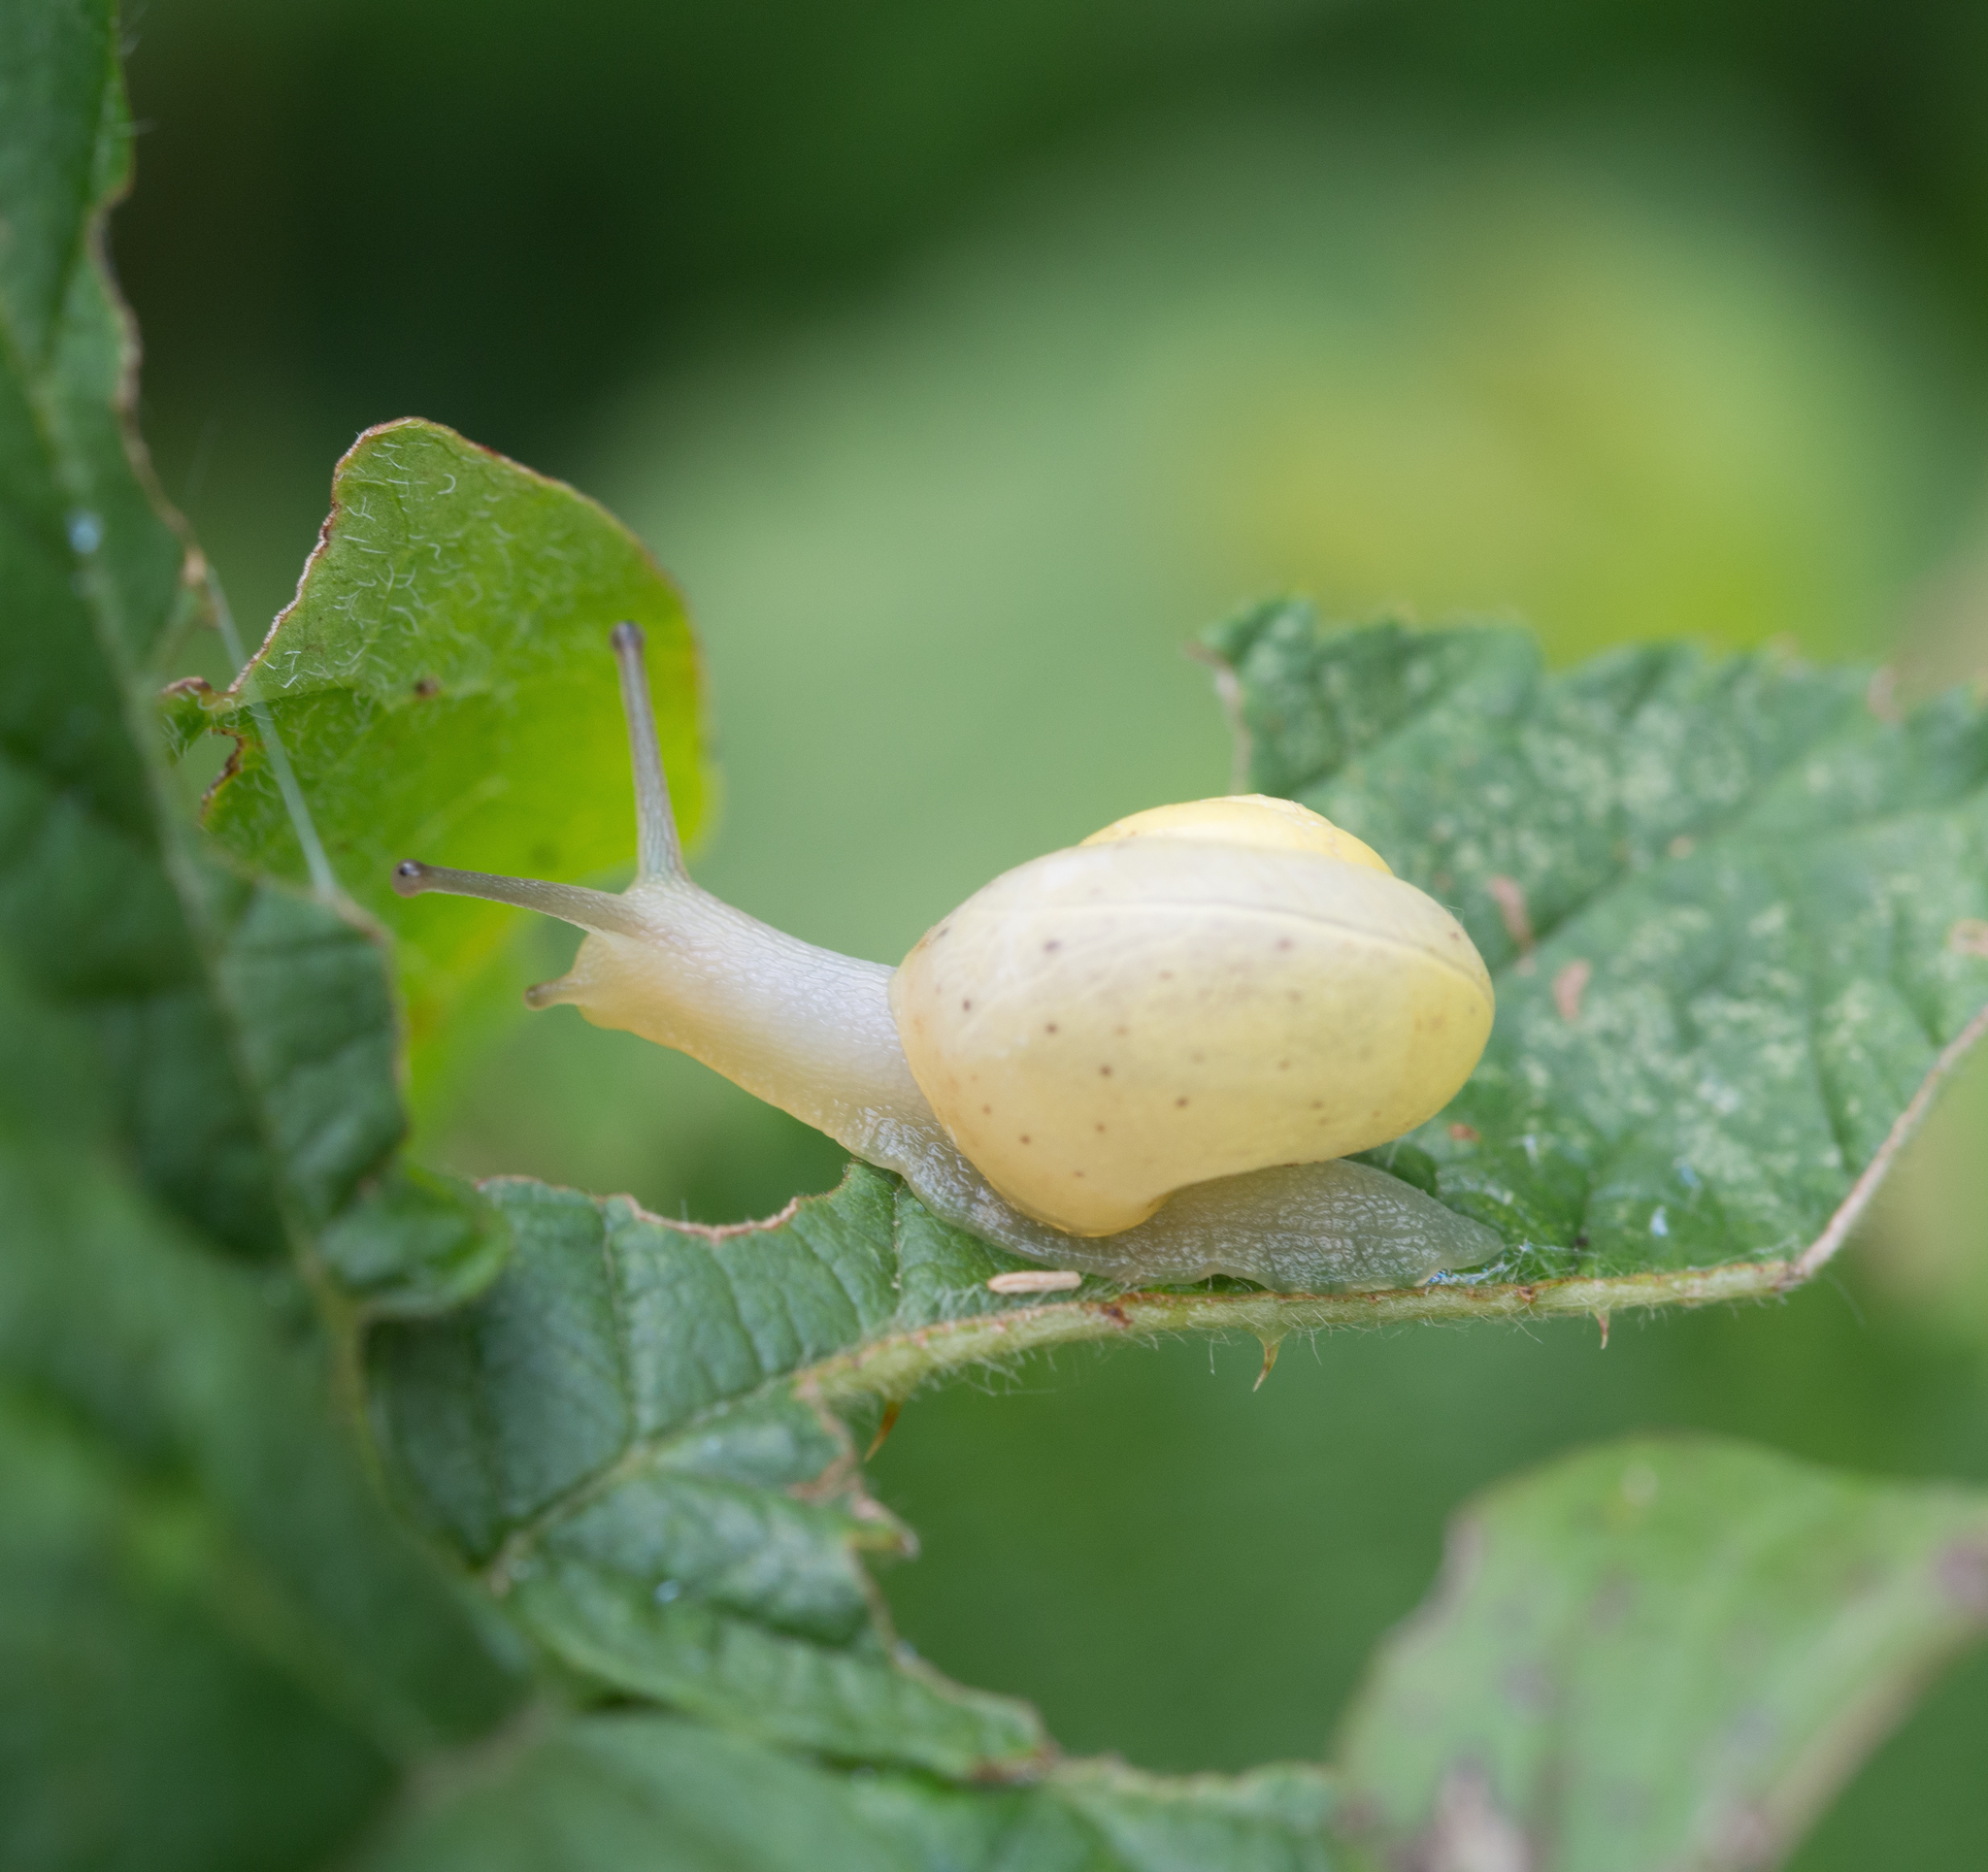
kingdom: Animalia
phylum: Mollusca
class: Gastropoda
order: Stylommatophora
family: Camaenidae
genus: Fruticicola
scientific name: Fruticicola fruticum
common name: Bush snail
